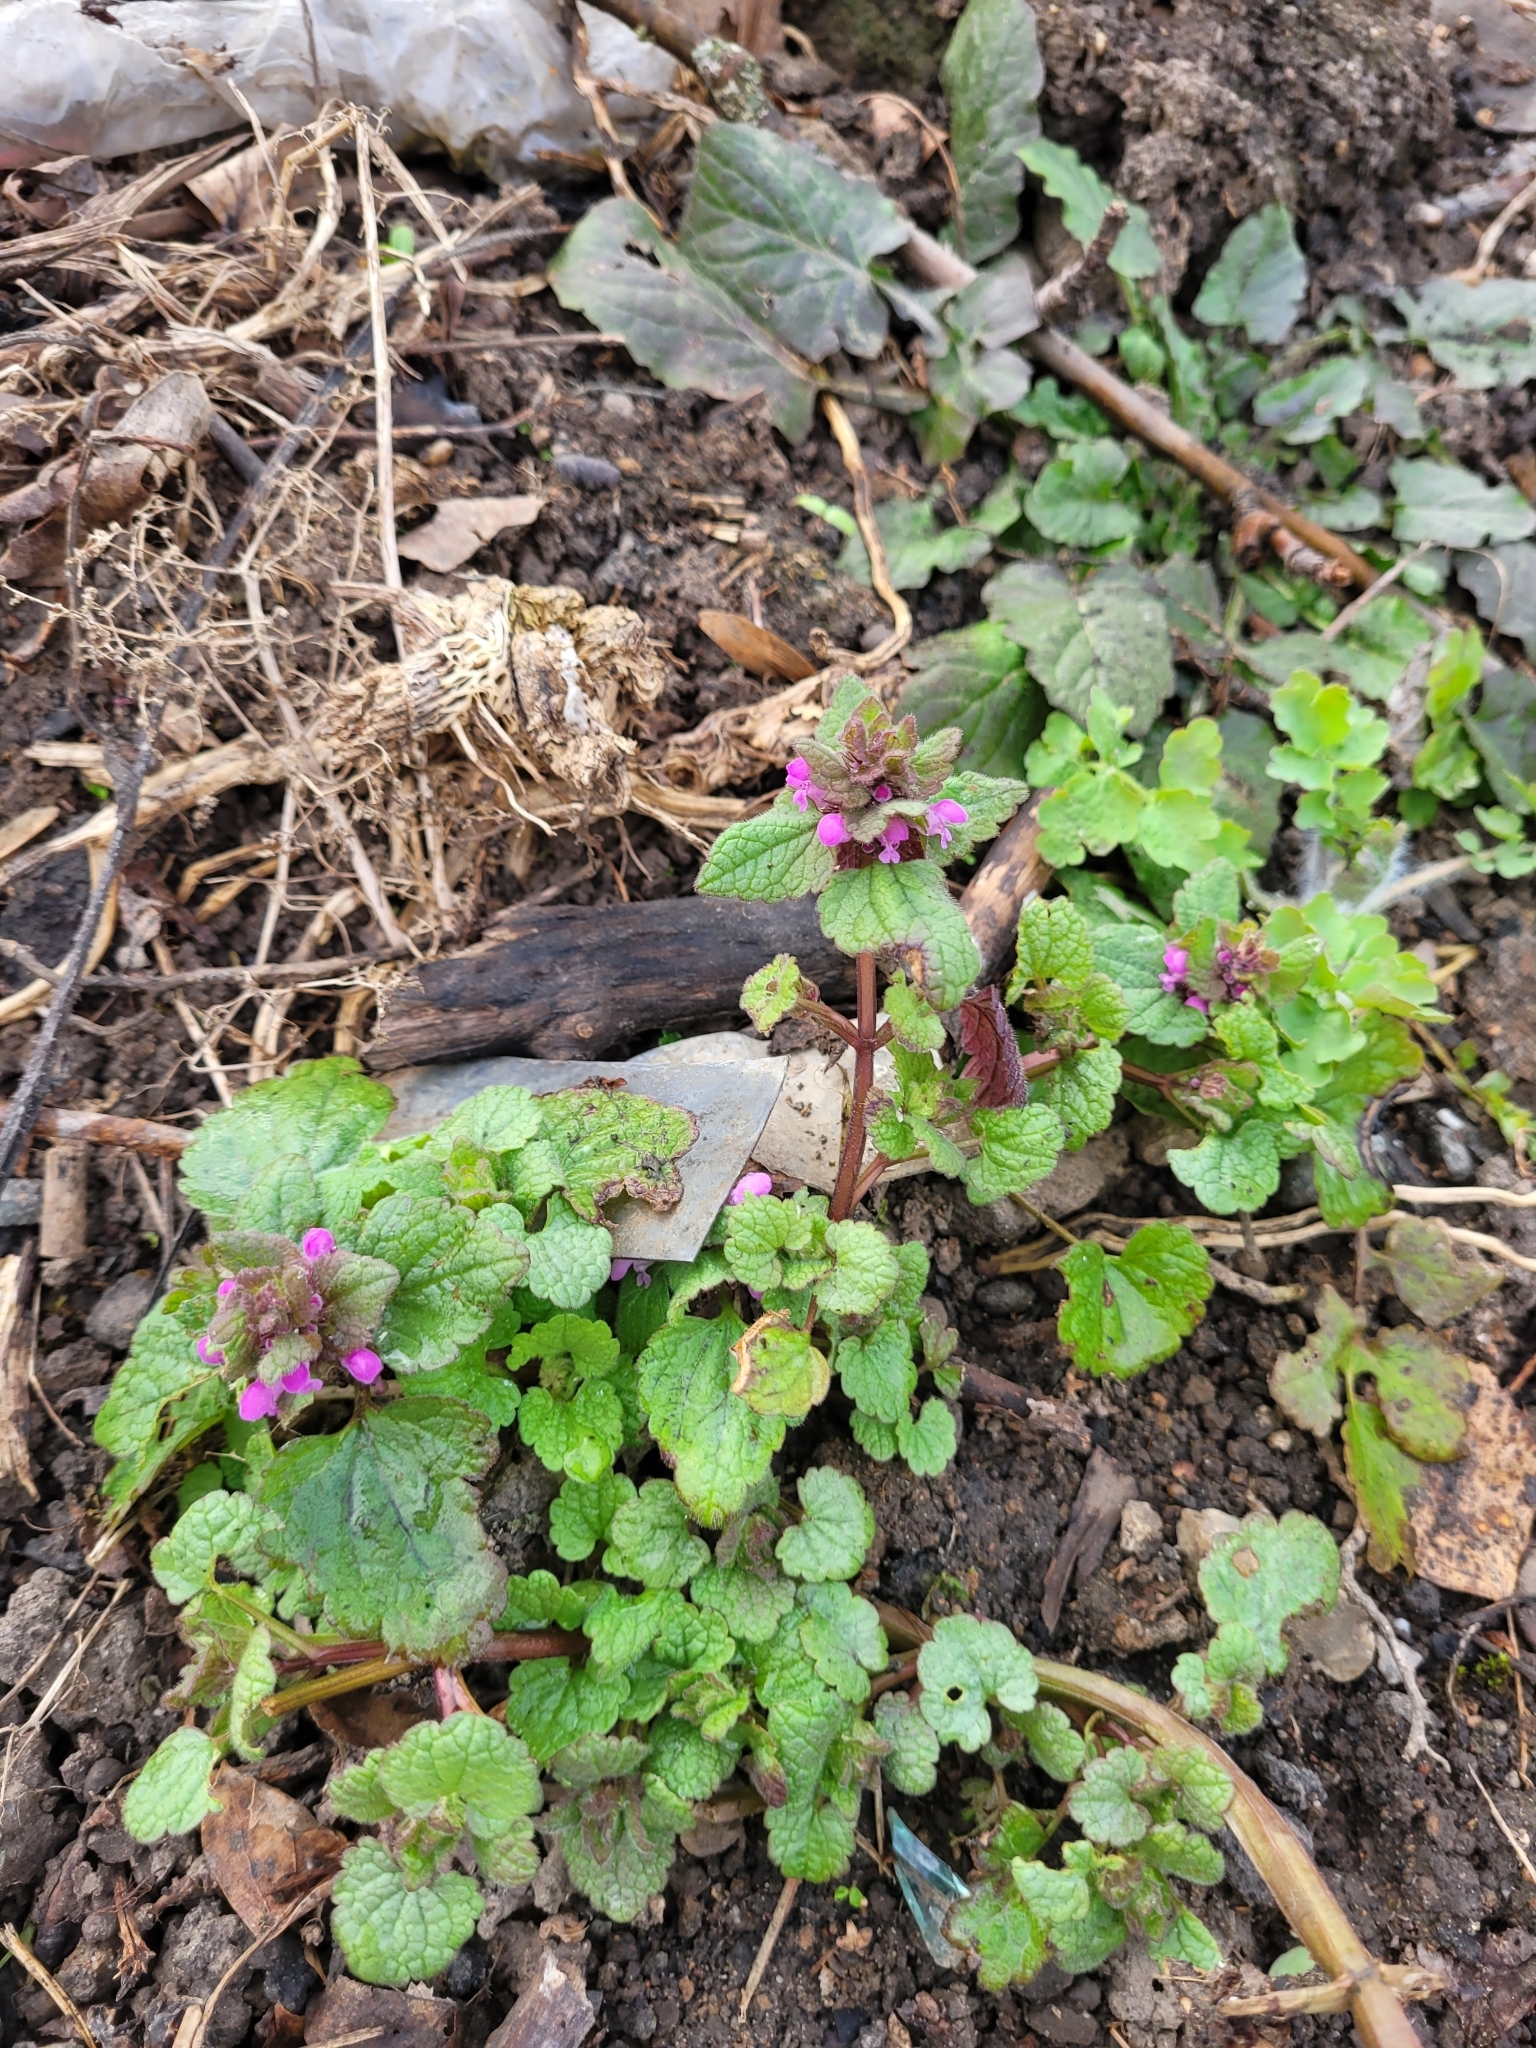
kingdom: Plantae
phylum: Tracheophyta
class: Magnoliopsida
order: Lamiales
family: Lamiaceae
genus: Lamium
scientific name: Lamium purpureum
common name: Red dead-nettle
